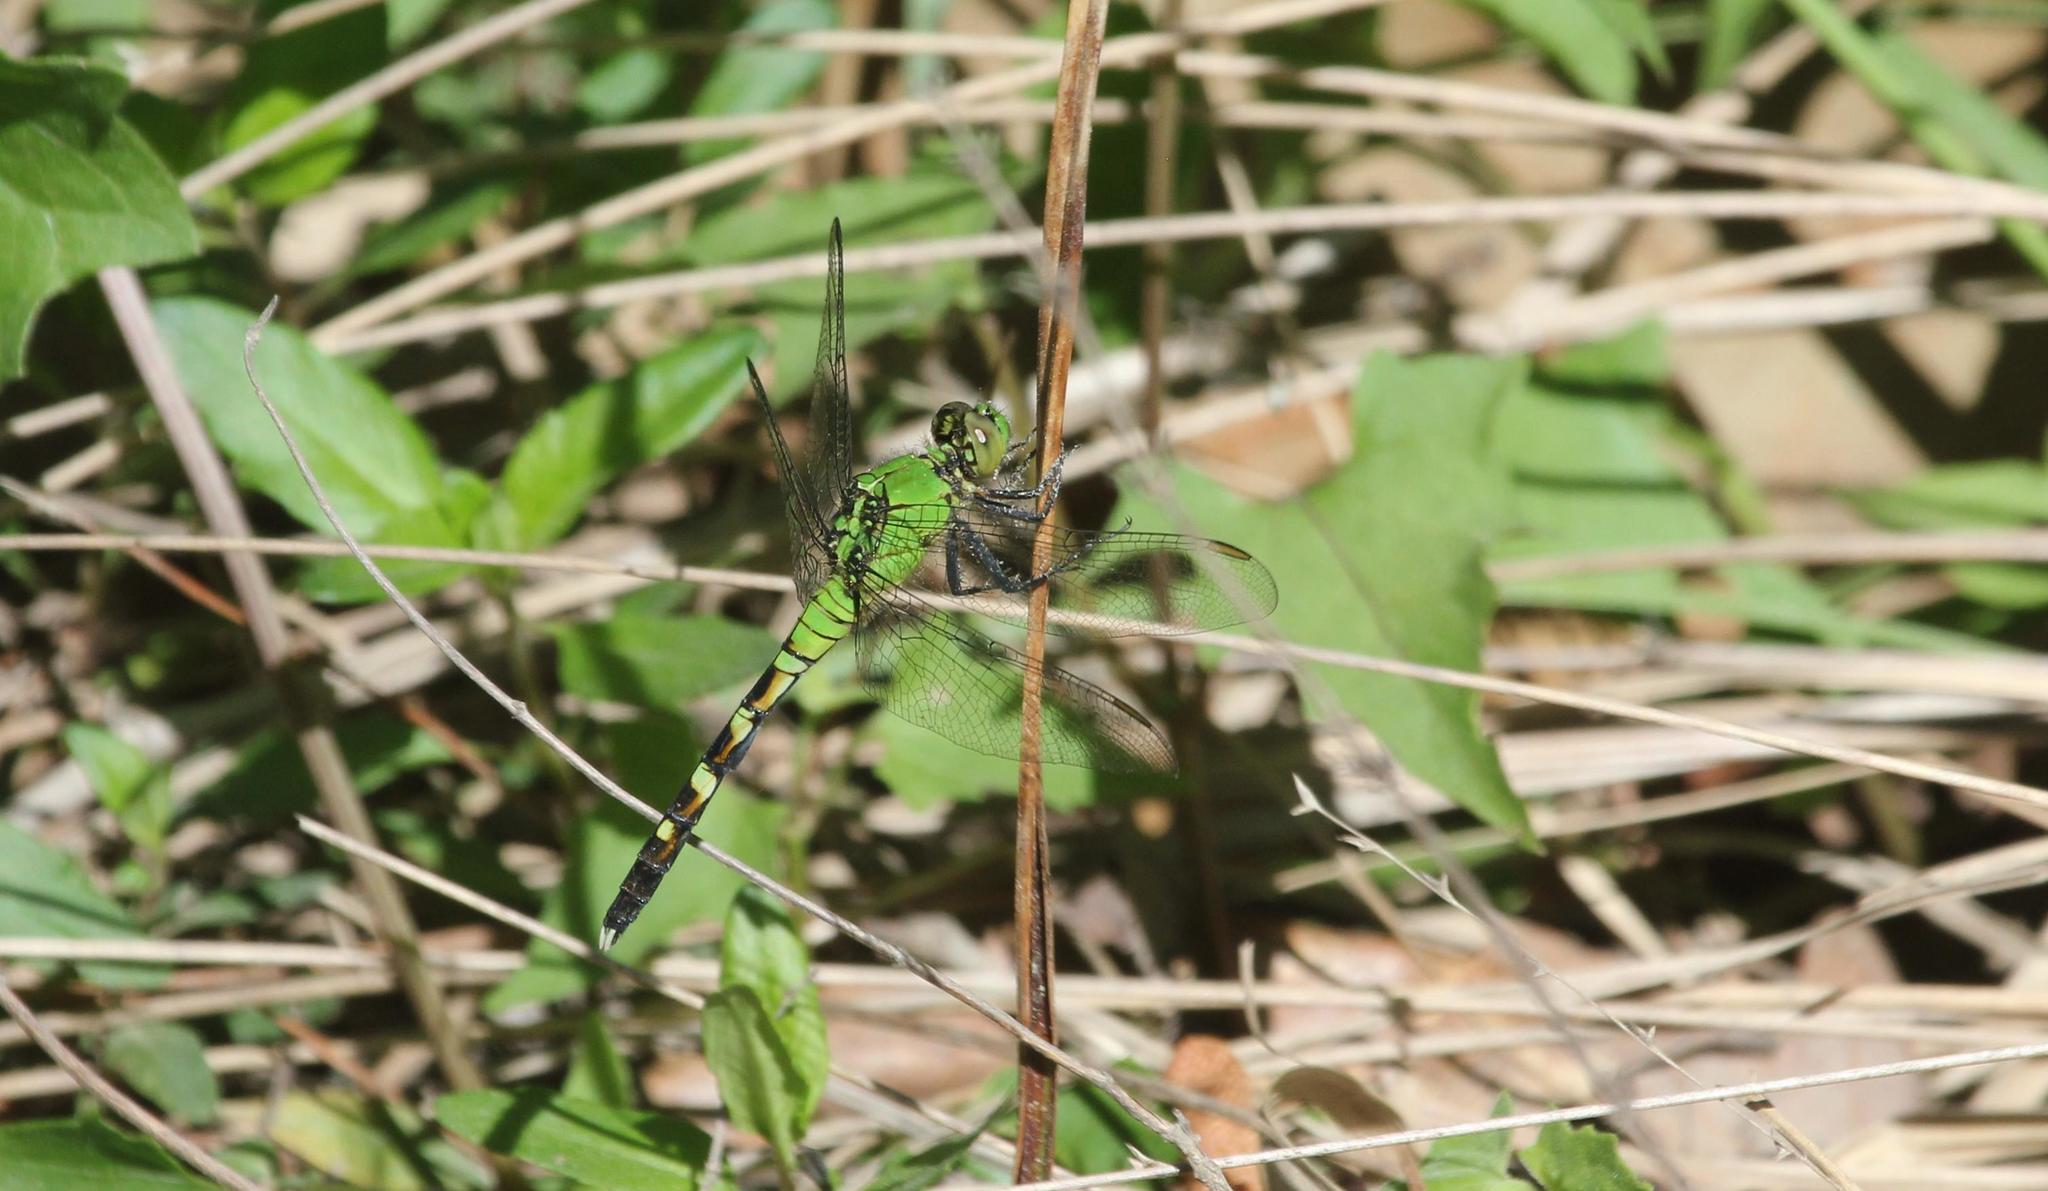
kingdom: Animalia
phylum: Arthropoda
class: Insecta
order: Odonata
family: Libellulidae
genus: Erythemis
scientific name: Erythemis simplicicollis
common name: Eastern pondhawk
